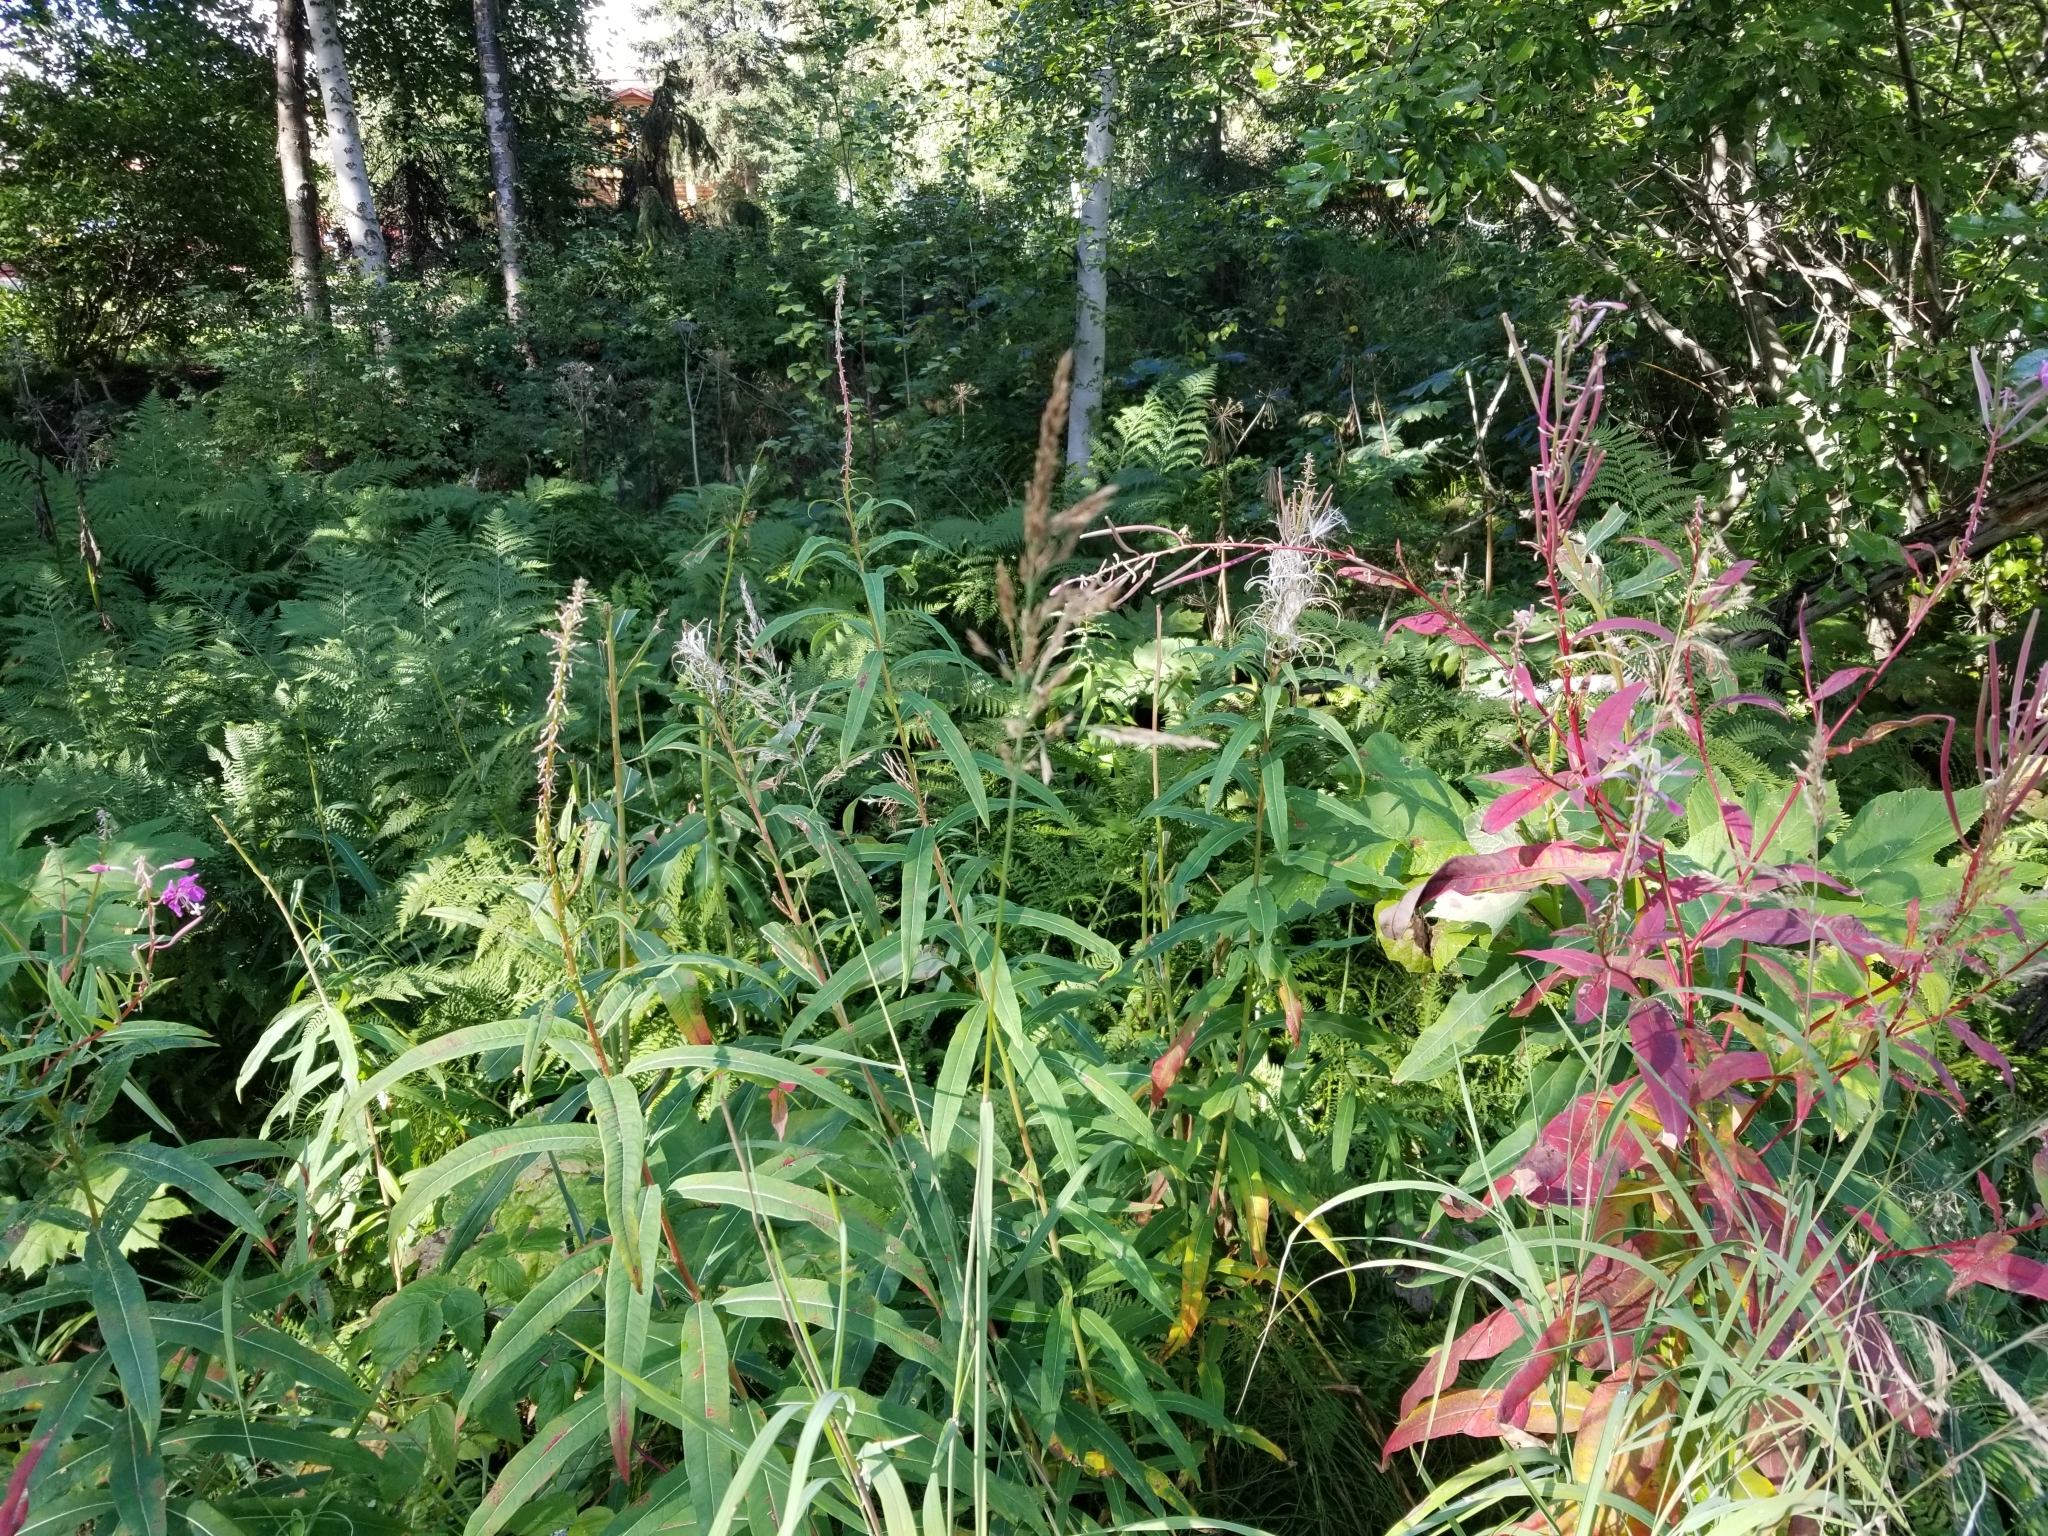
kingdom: Plantae
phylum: Tracheophyta
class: Magnoliopsida
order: Myrtales
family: Onagraceae
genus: Chamaenerion
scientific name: Chamaenerion angustifolium
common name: Fireweed
